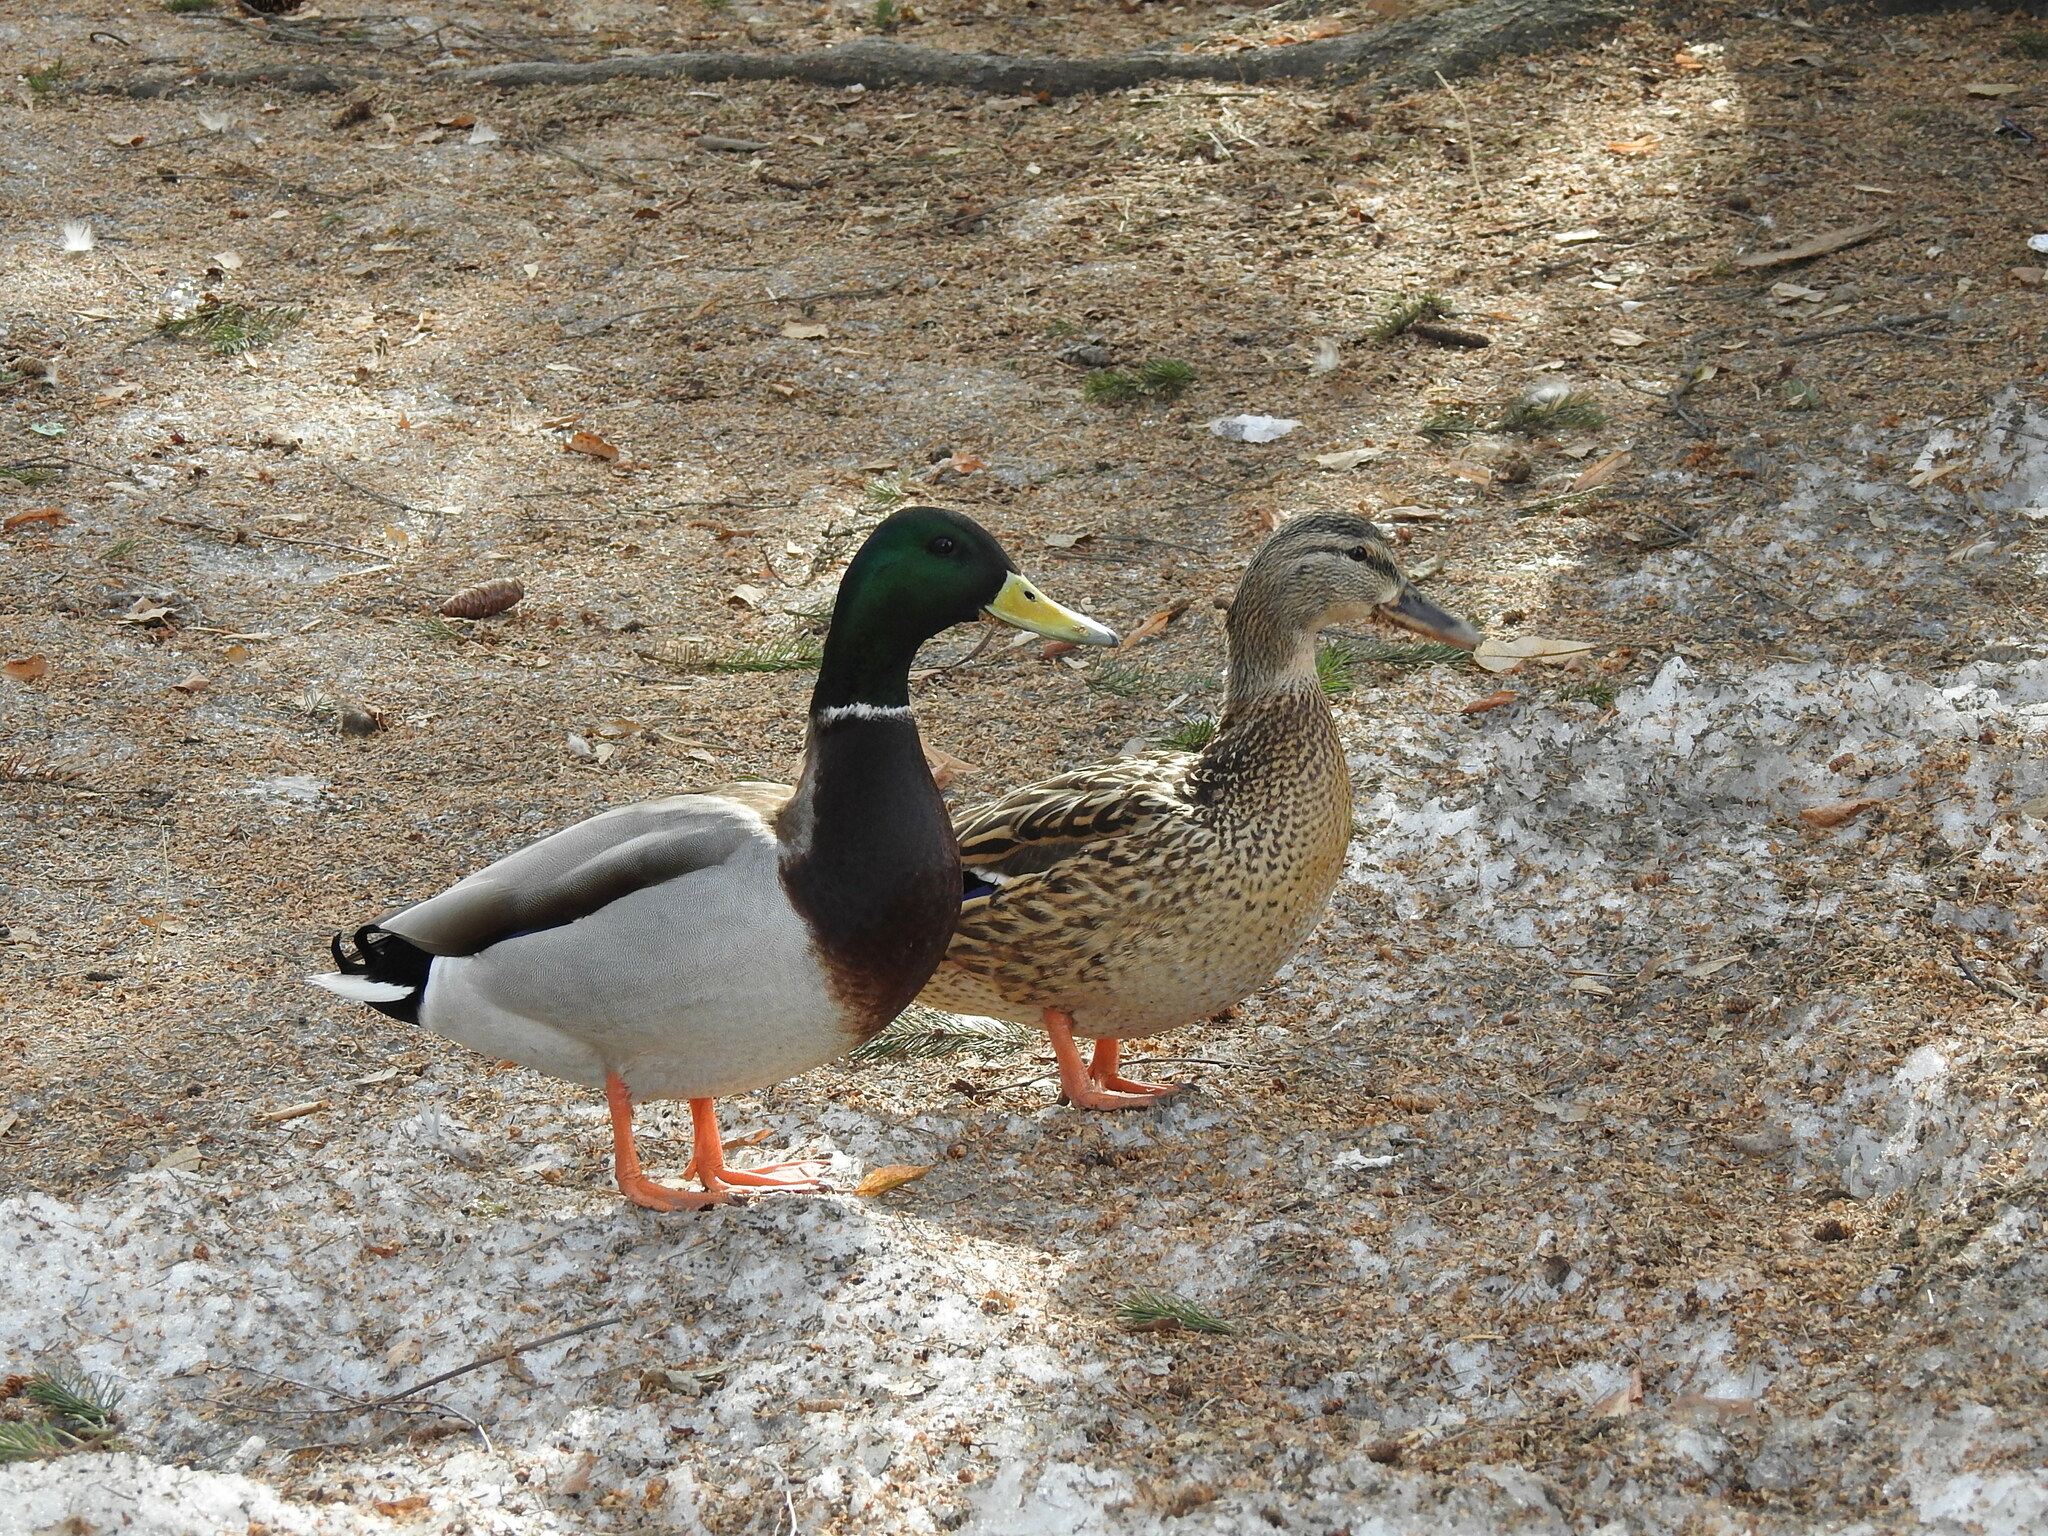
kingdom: Animalia
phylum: Chordata
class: Aves
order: Anseriformes
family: Anatidae
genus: Anas
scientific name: Anas platyrhynchos
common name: Mallard
